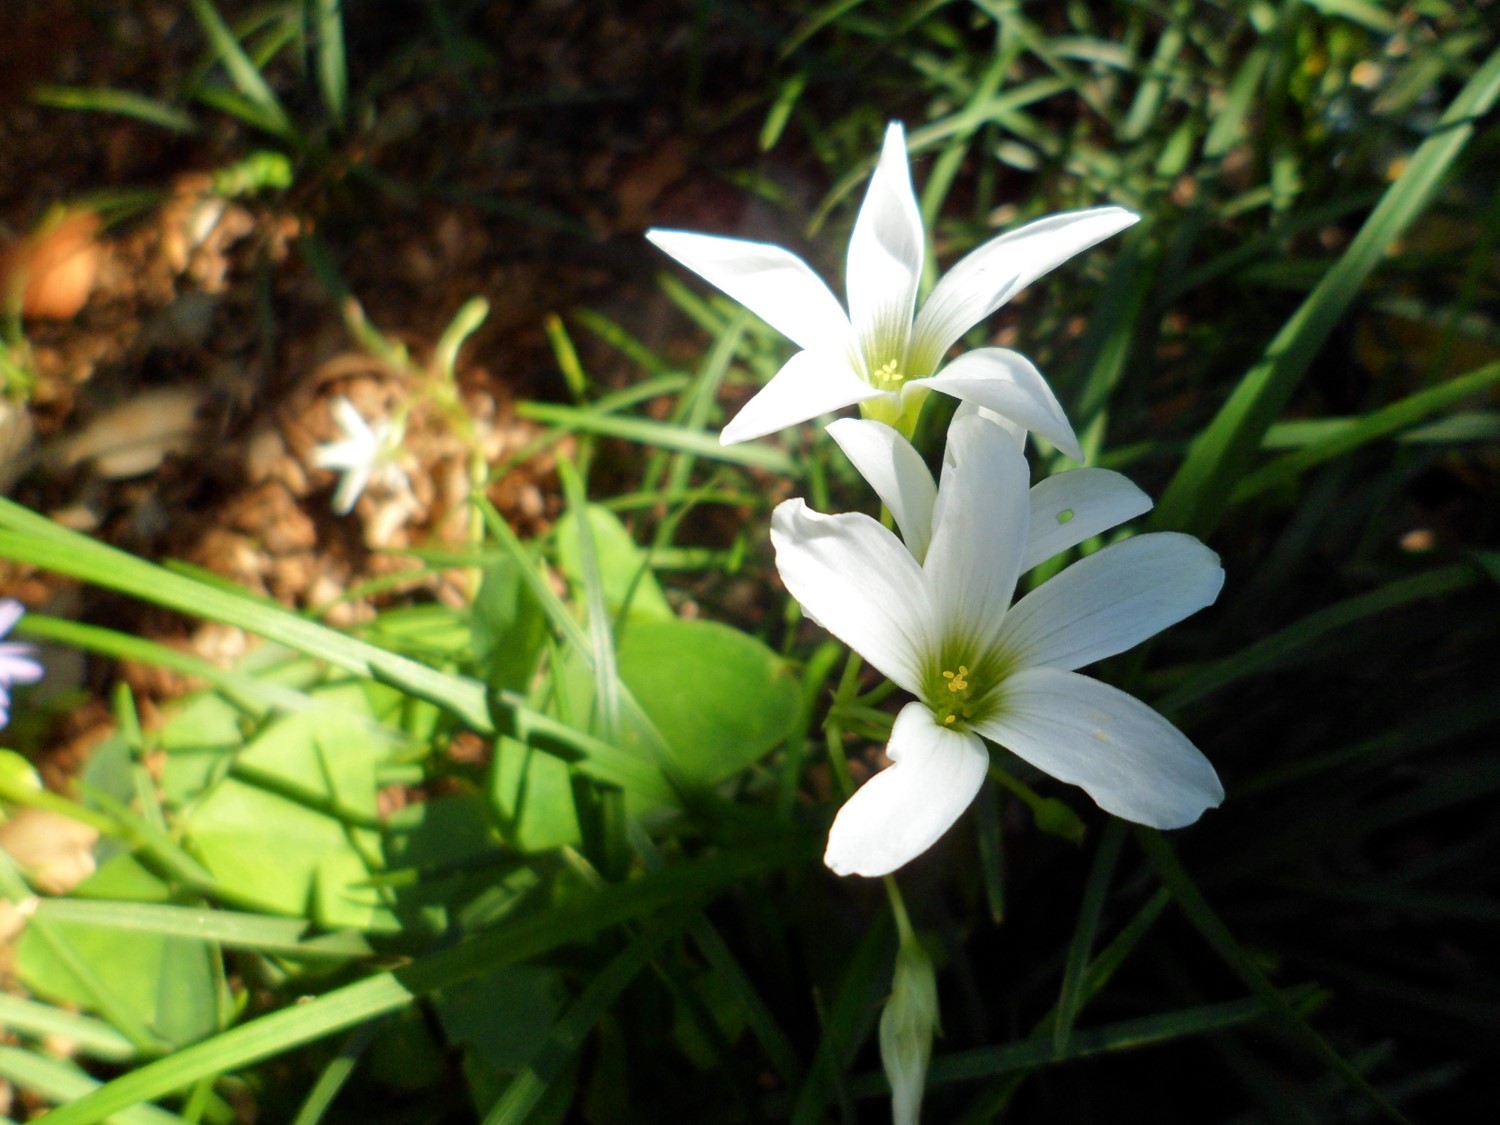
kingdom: Plantae
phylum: Tracheophyta
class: Magnoliopsida
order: Oxalidales
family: Oxalidaceae
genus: Oxalis
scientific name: Oxalis triangularis
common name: Wood sorrel
